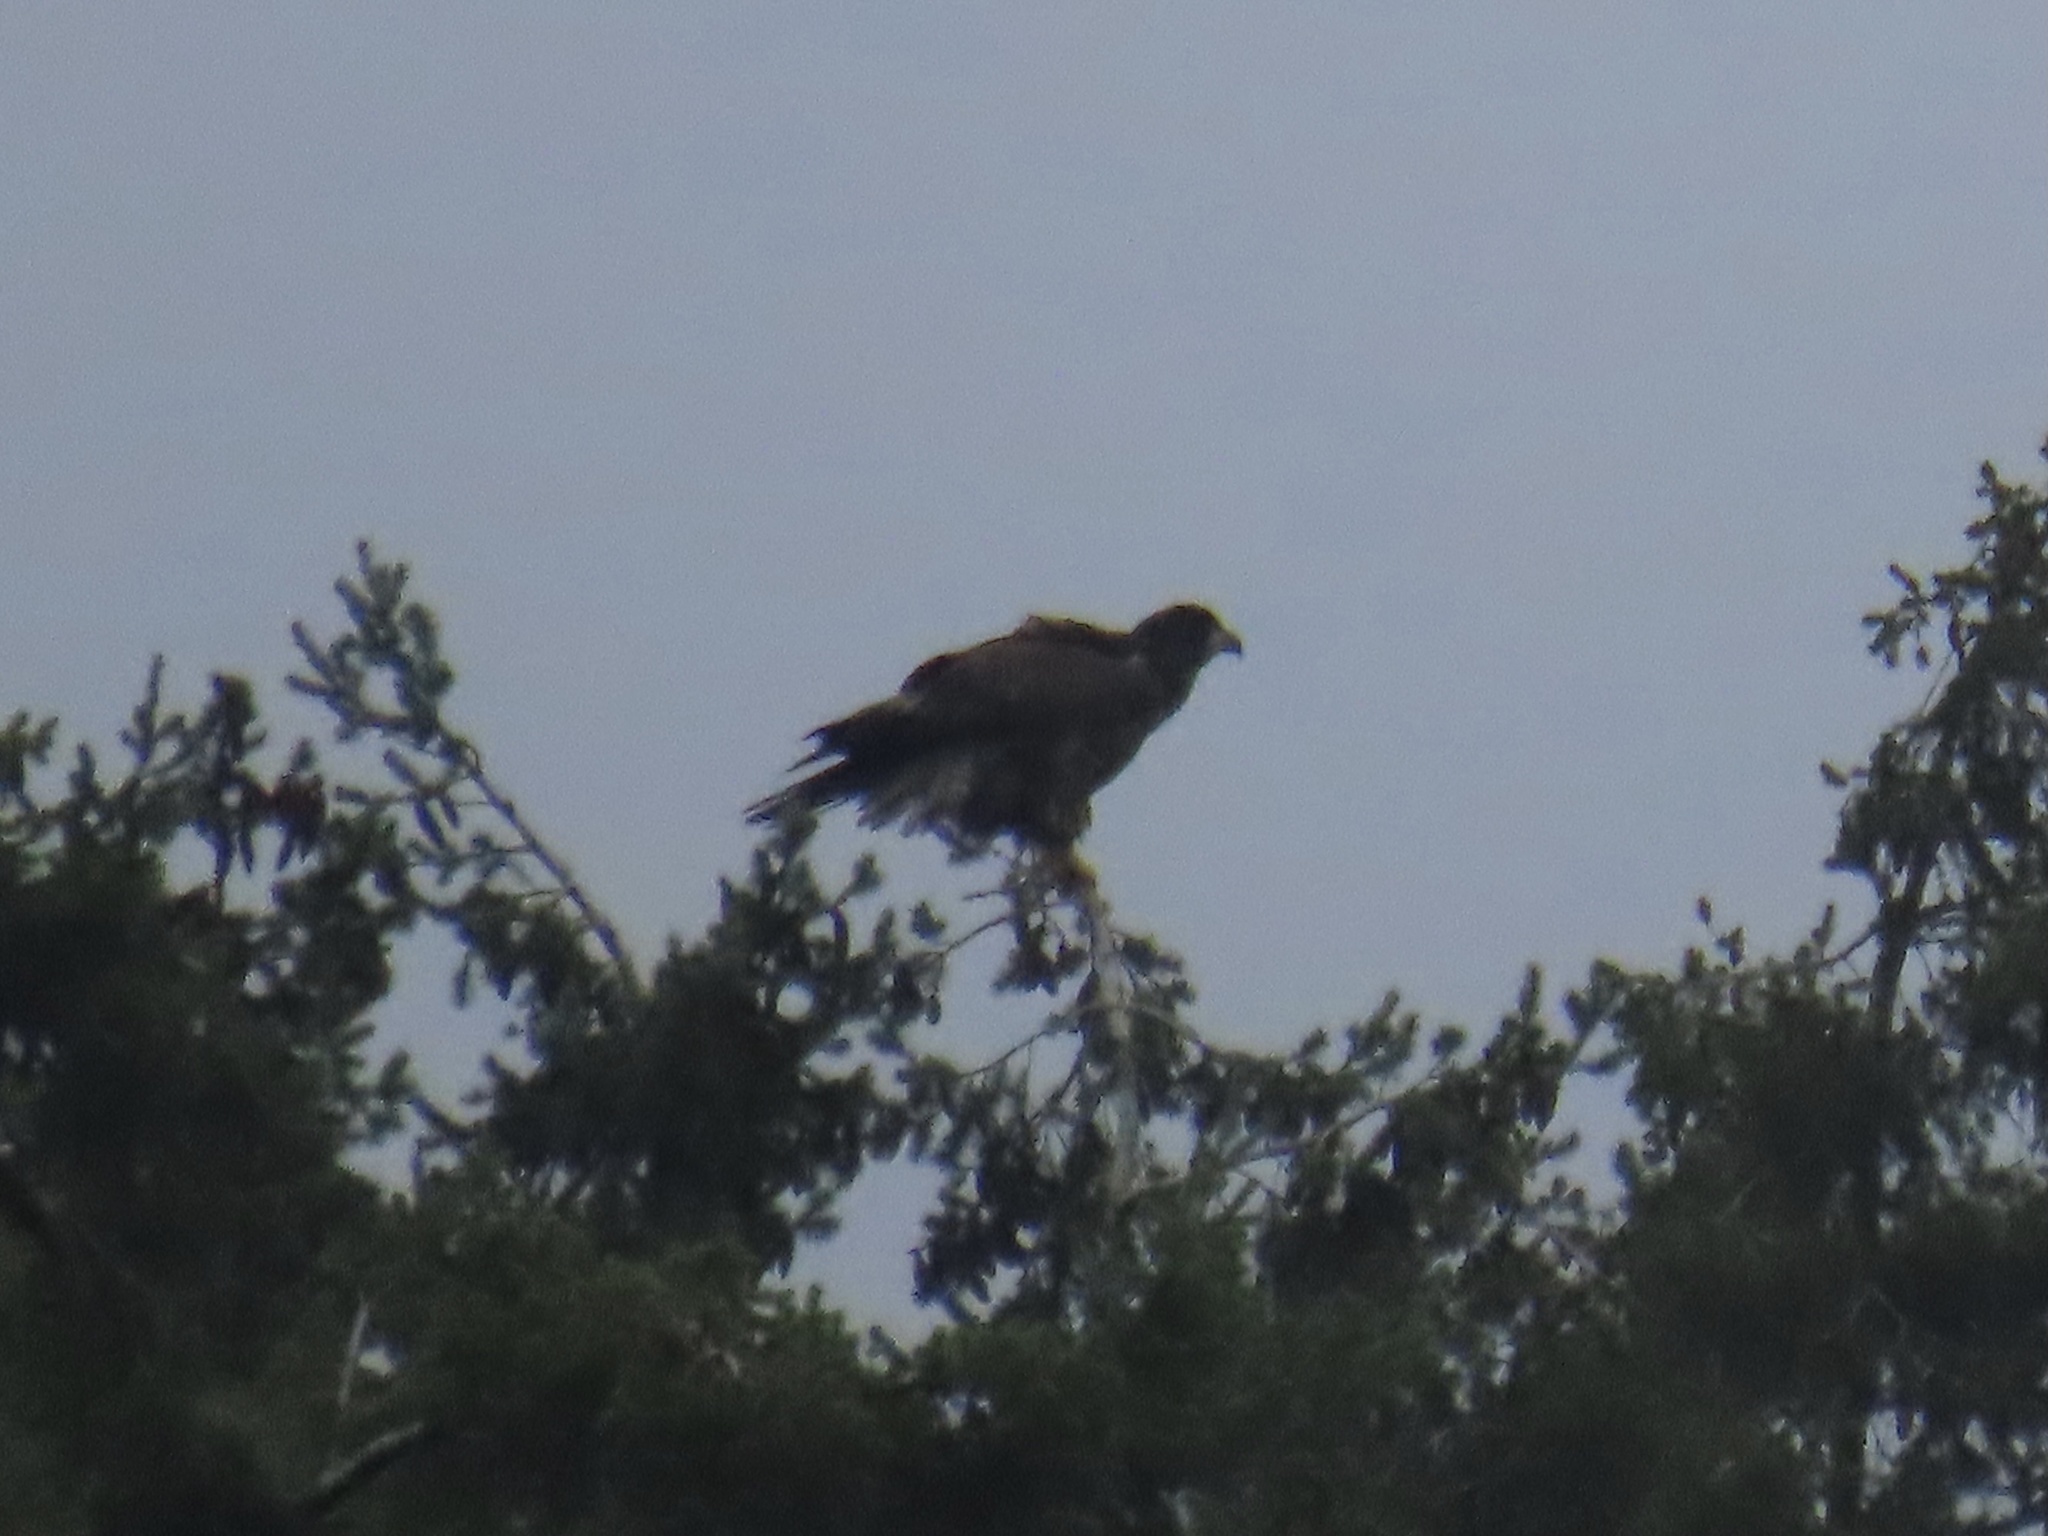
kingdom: Animalia
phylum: Chordata
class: Aves
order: Accipitriformes
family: Accipitridae
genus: Haliaeetus
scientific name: Haliaeetus leucocephalus
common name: Bald eagle
